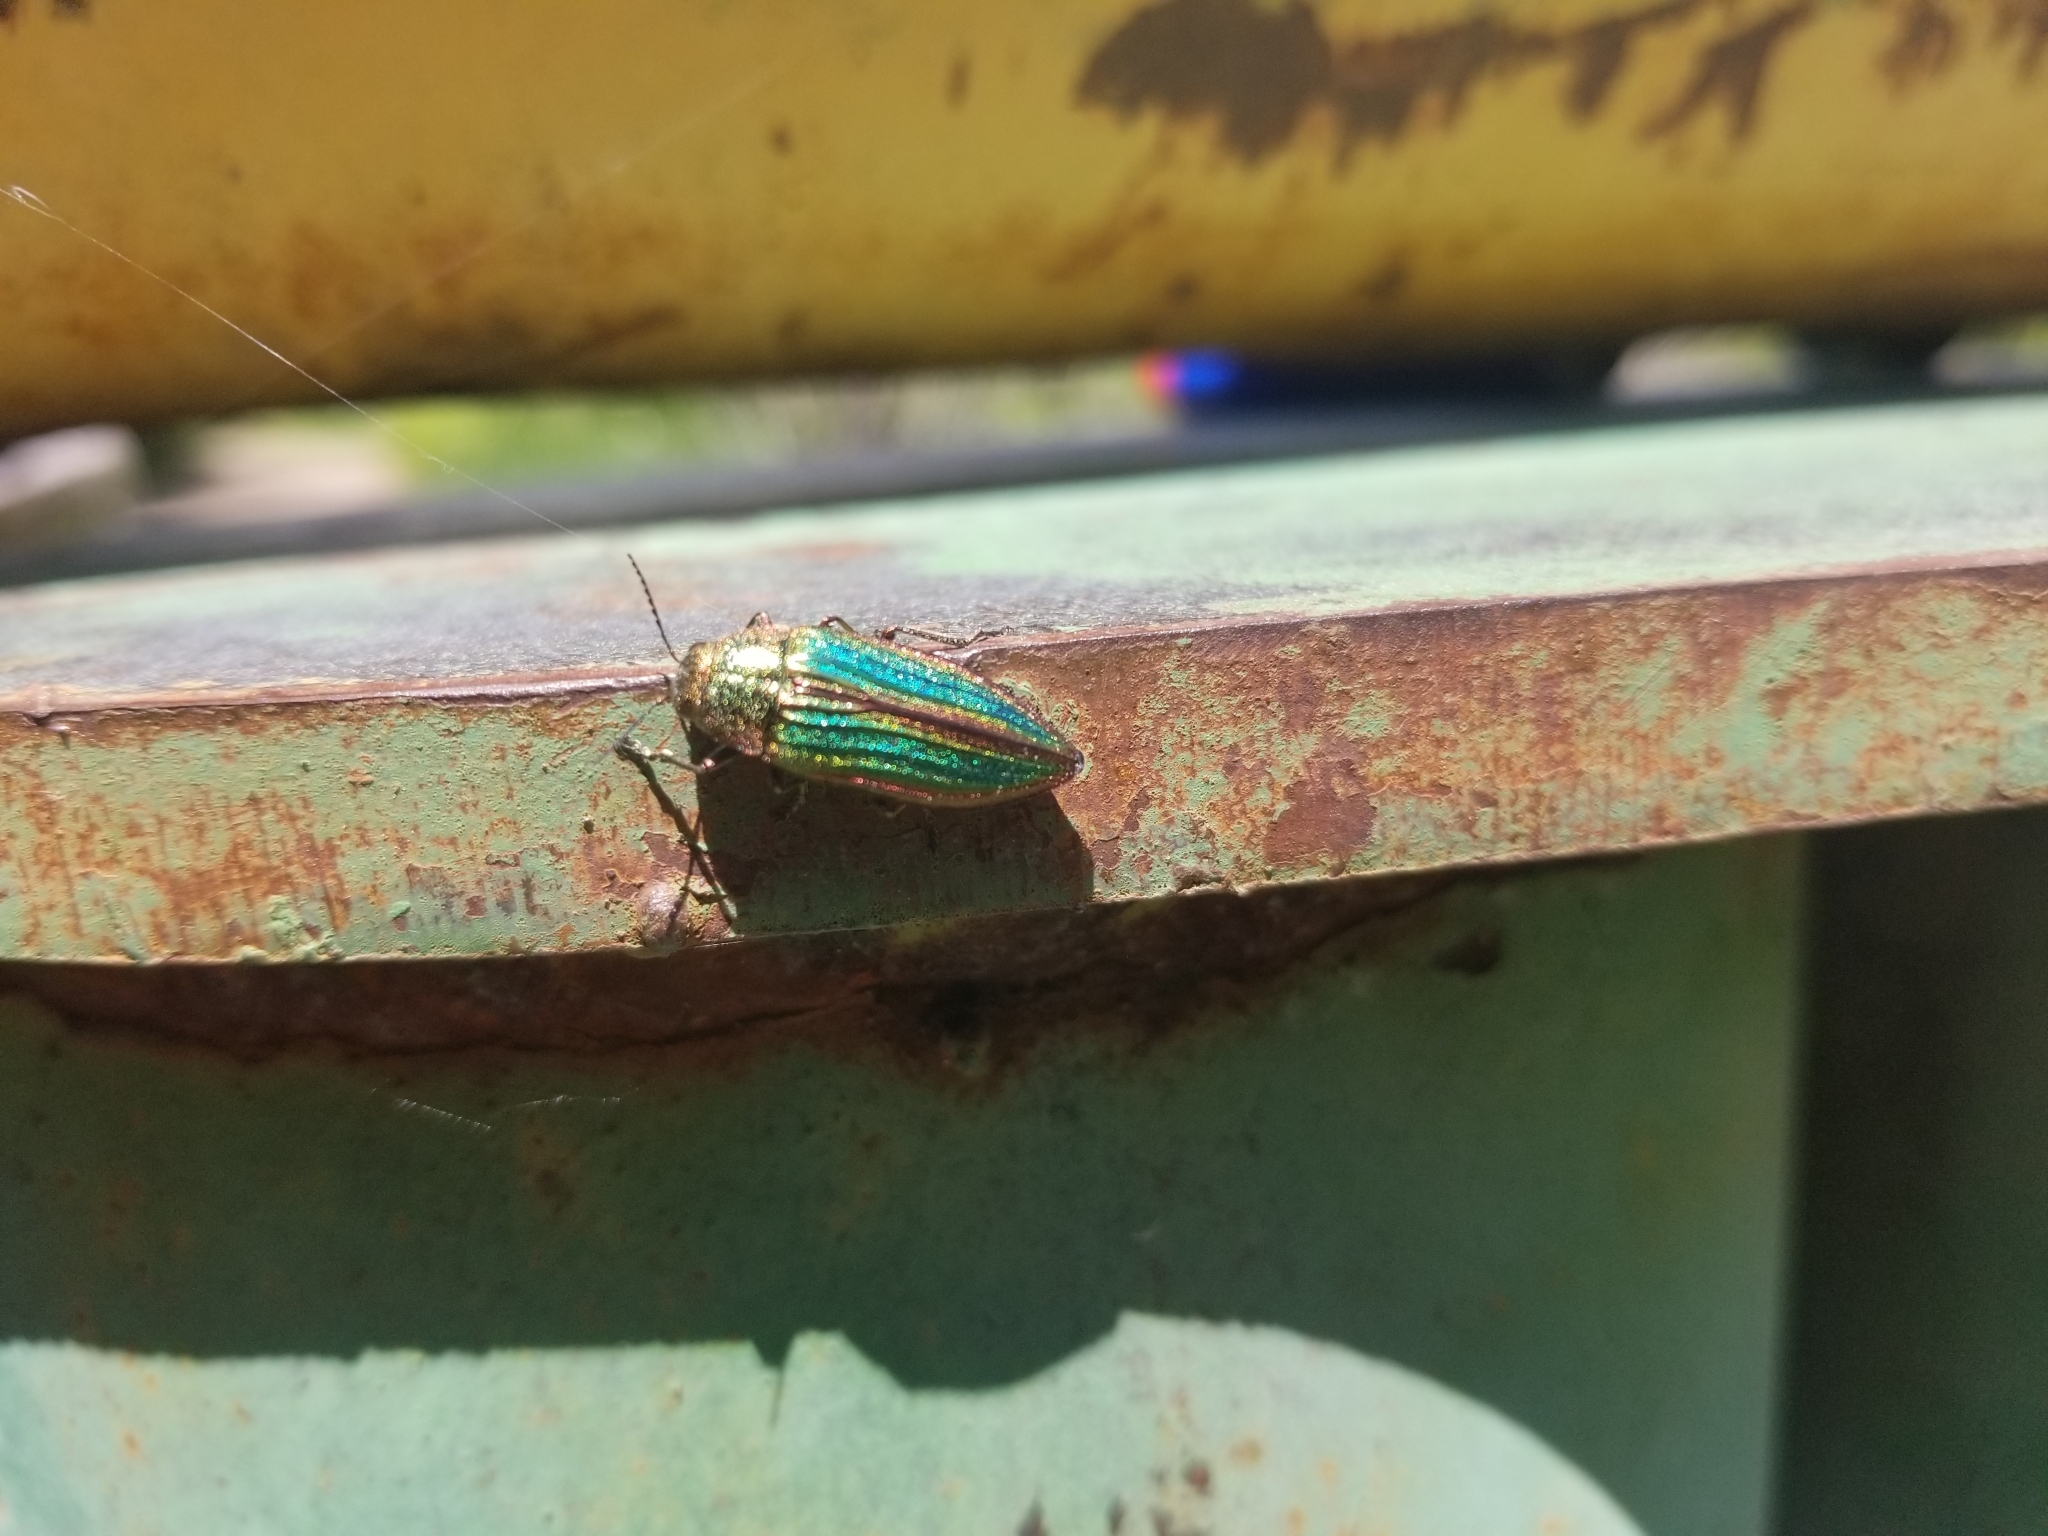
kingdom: Animalia
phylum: Arthropoda
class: Insecta
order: Coleoptera
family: Buprestidae
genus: Buprestis
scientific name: Buprestis aurulenta
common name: Golden buprestid
